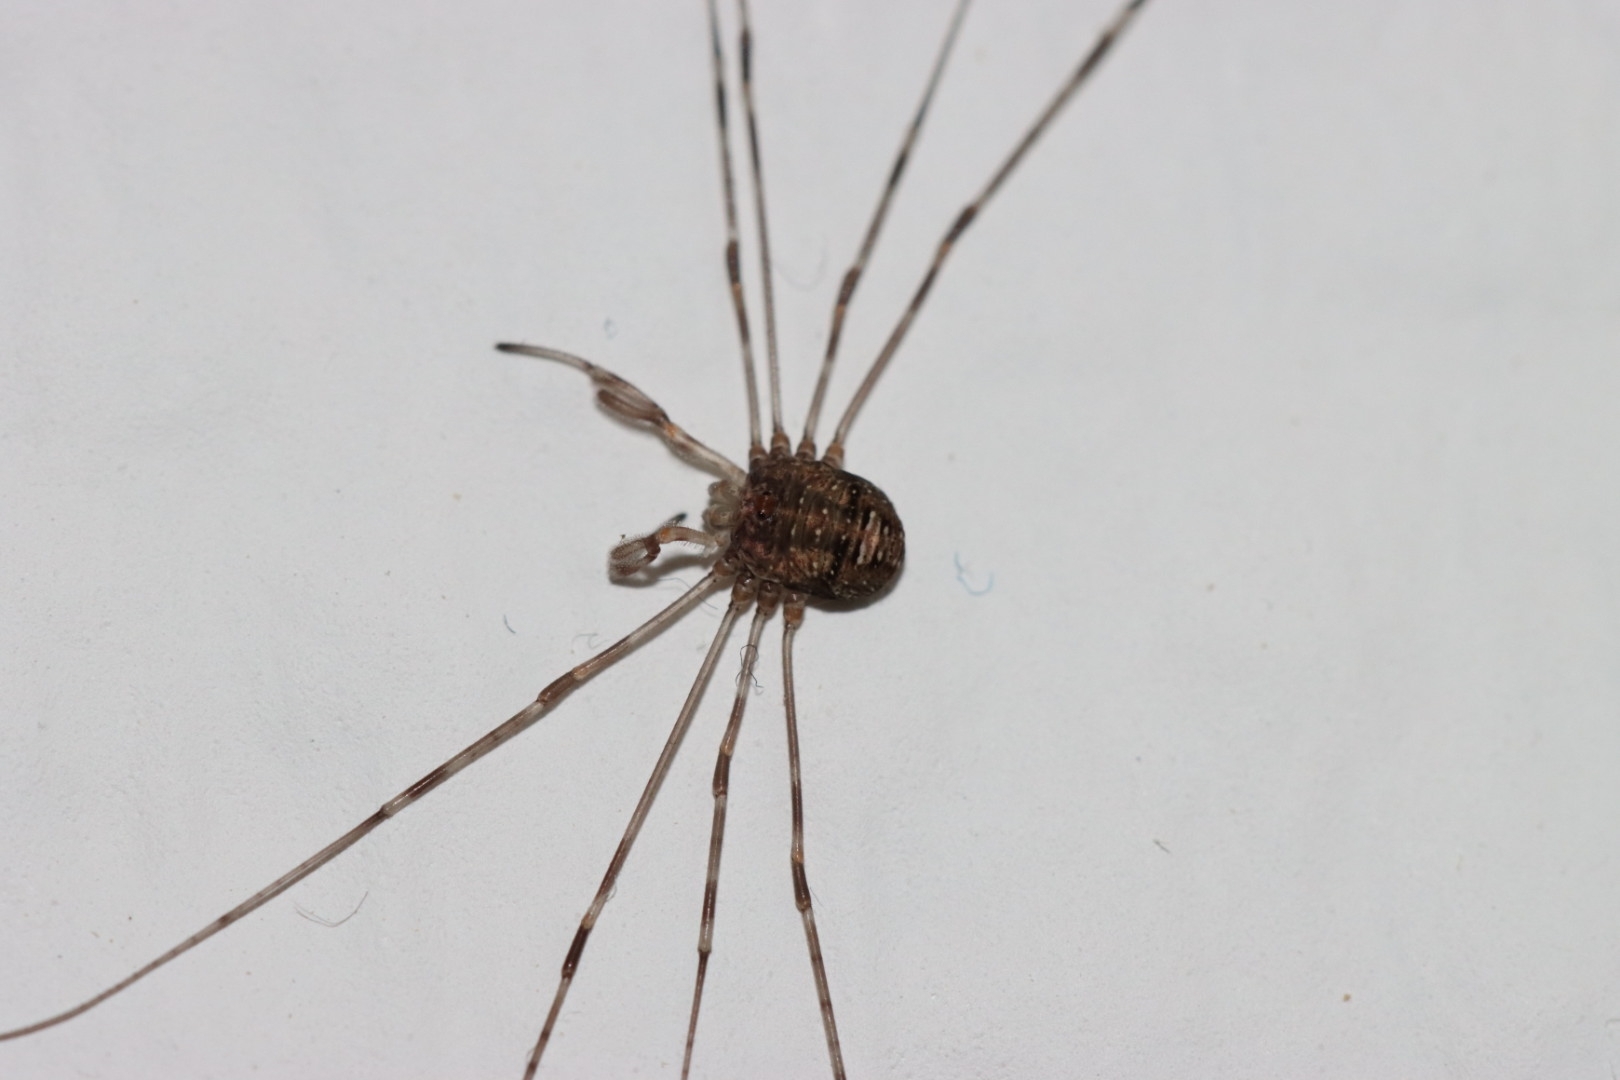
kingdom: Animalia
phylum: Arthropoda
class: Arachnida
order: Opiliones
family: Phalangiidae
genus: Dicranopalpus
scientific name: Dicranopalpus ramosus
